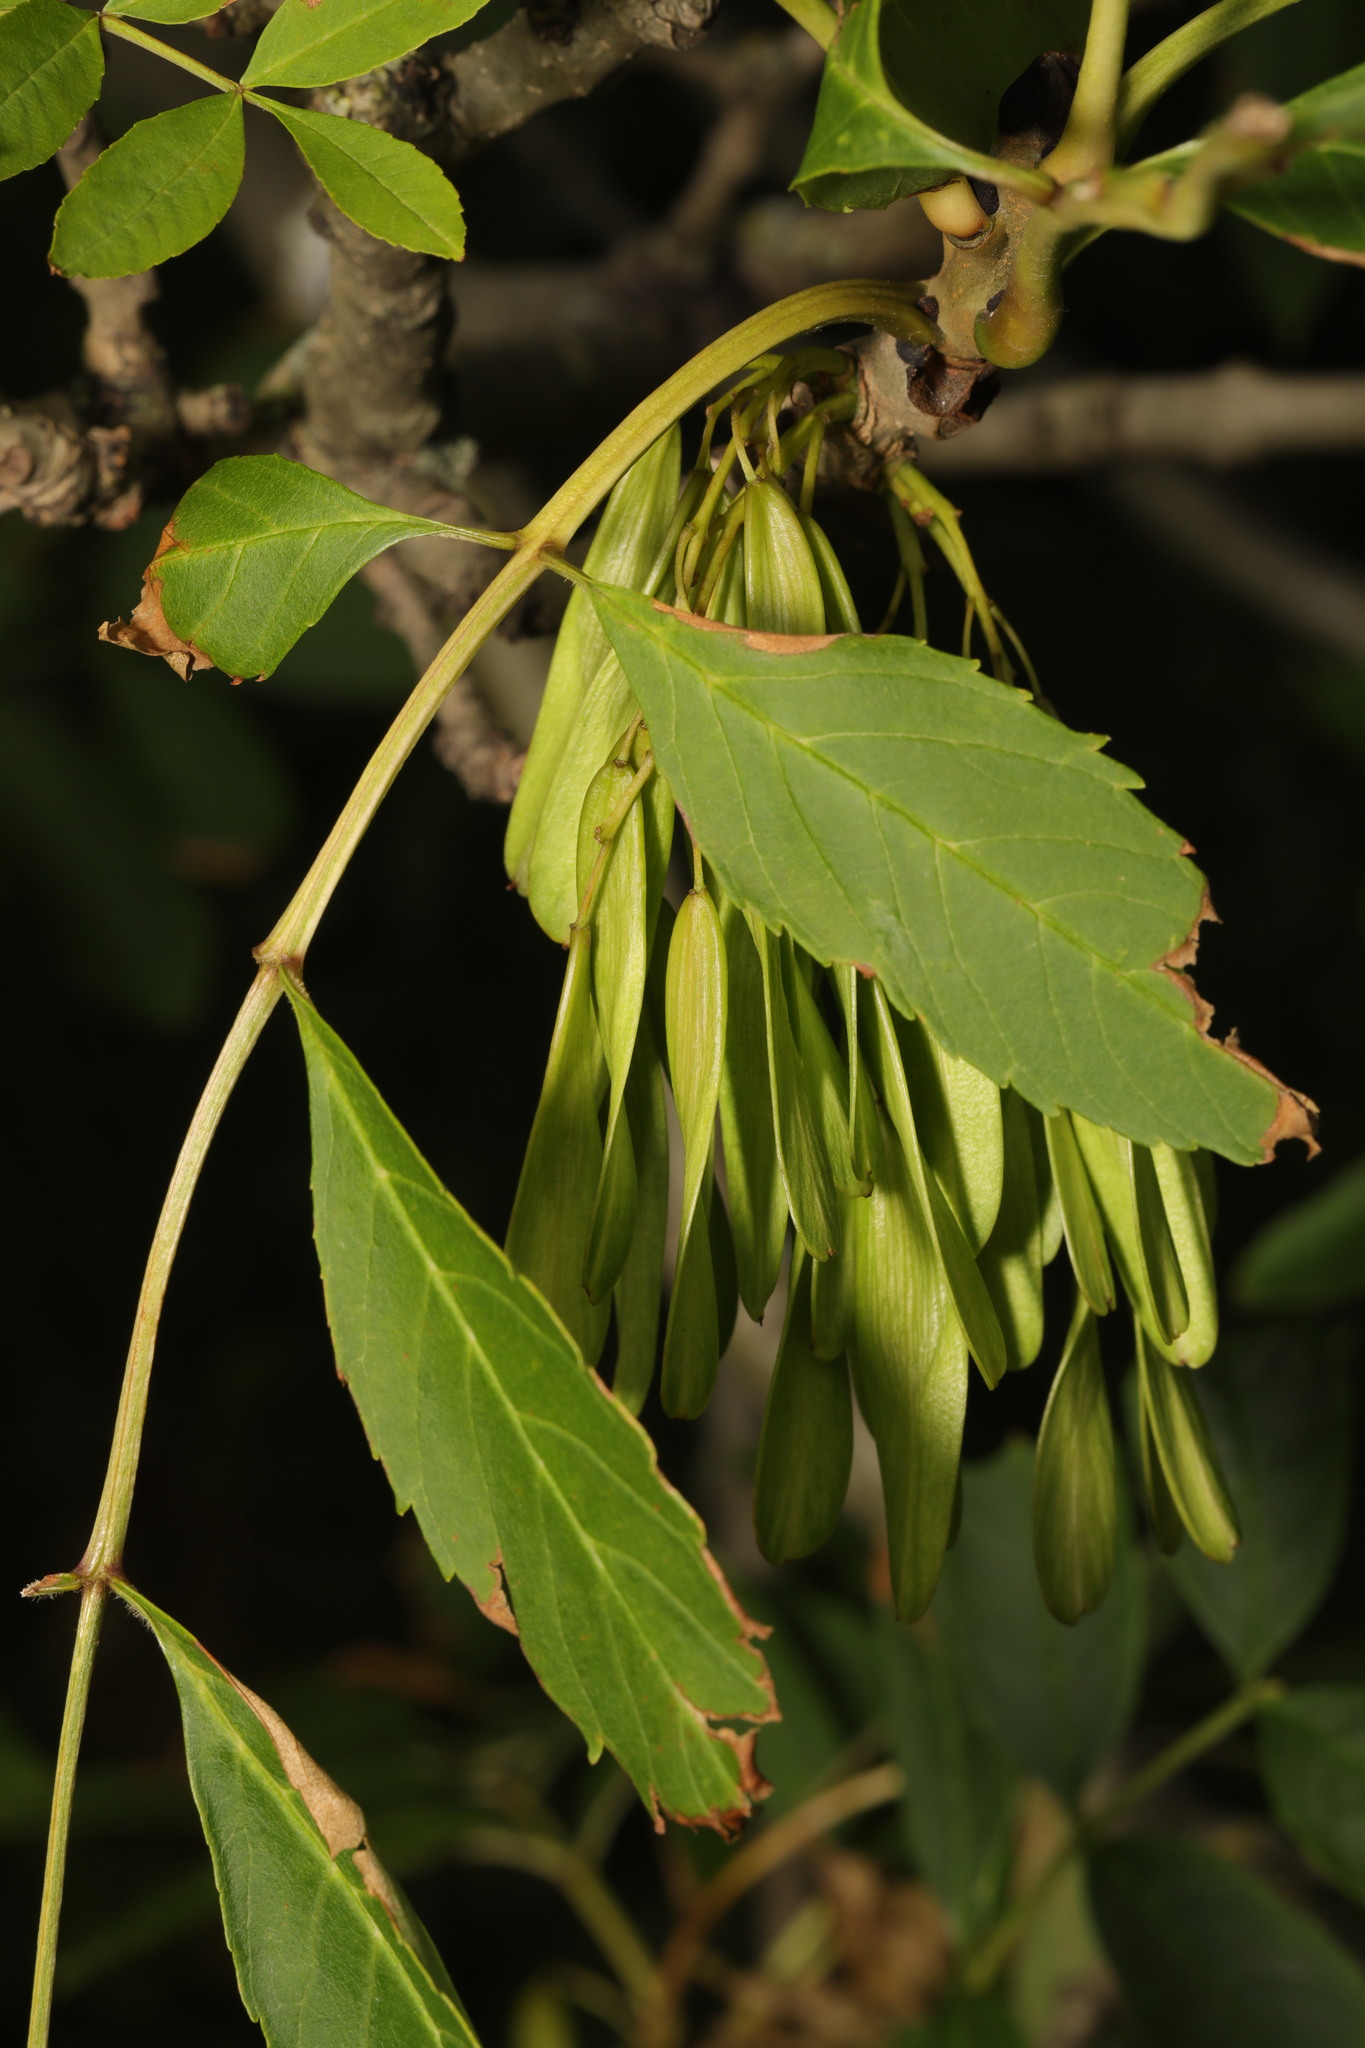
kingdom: Plantae
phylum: Tracheophyta
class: Magnoliopsida
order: Lamiales
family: Oleaceae
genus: Fraxinus
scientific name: Fraxinus excelsior
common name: European ash
